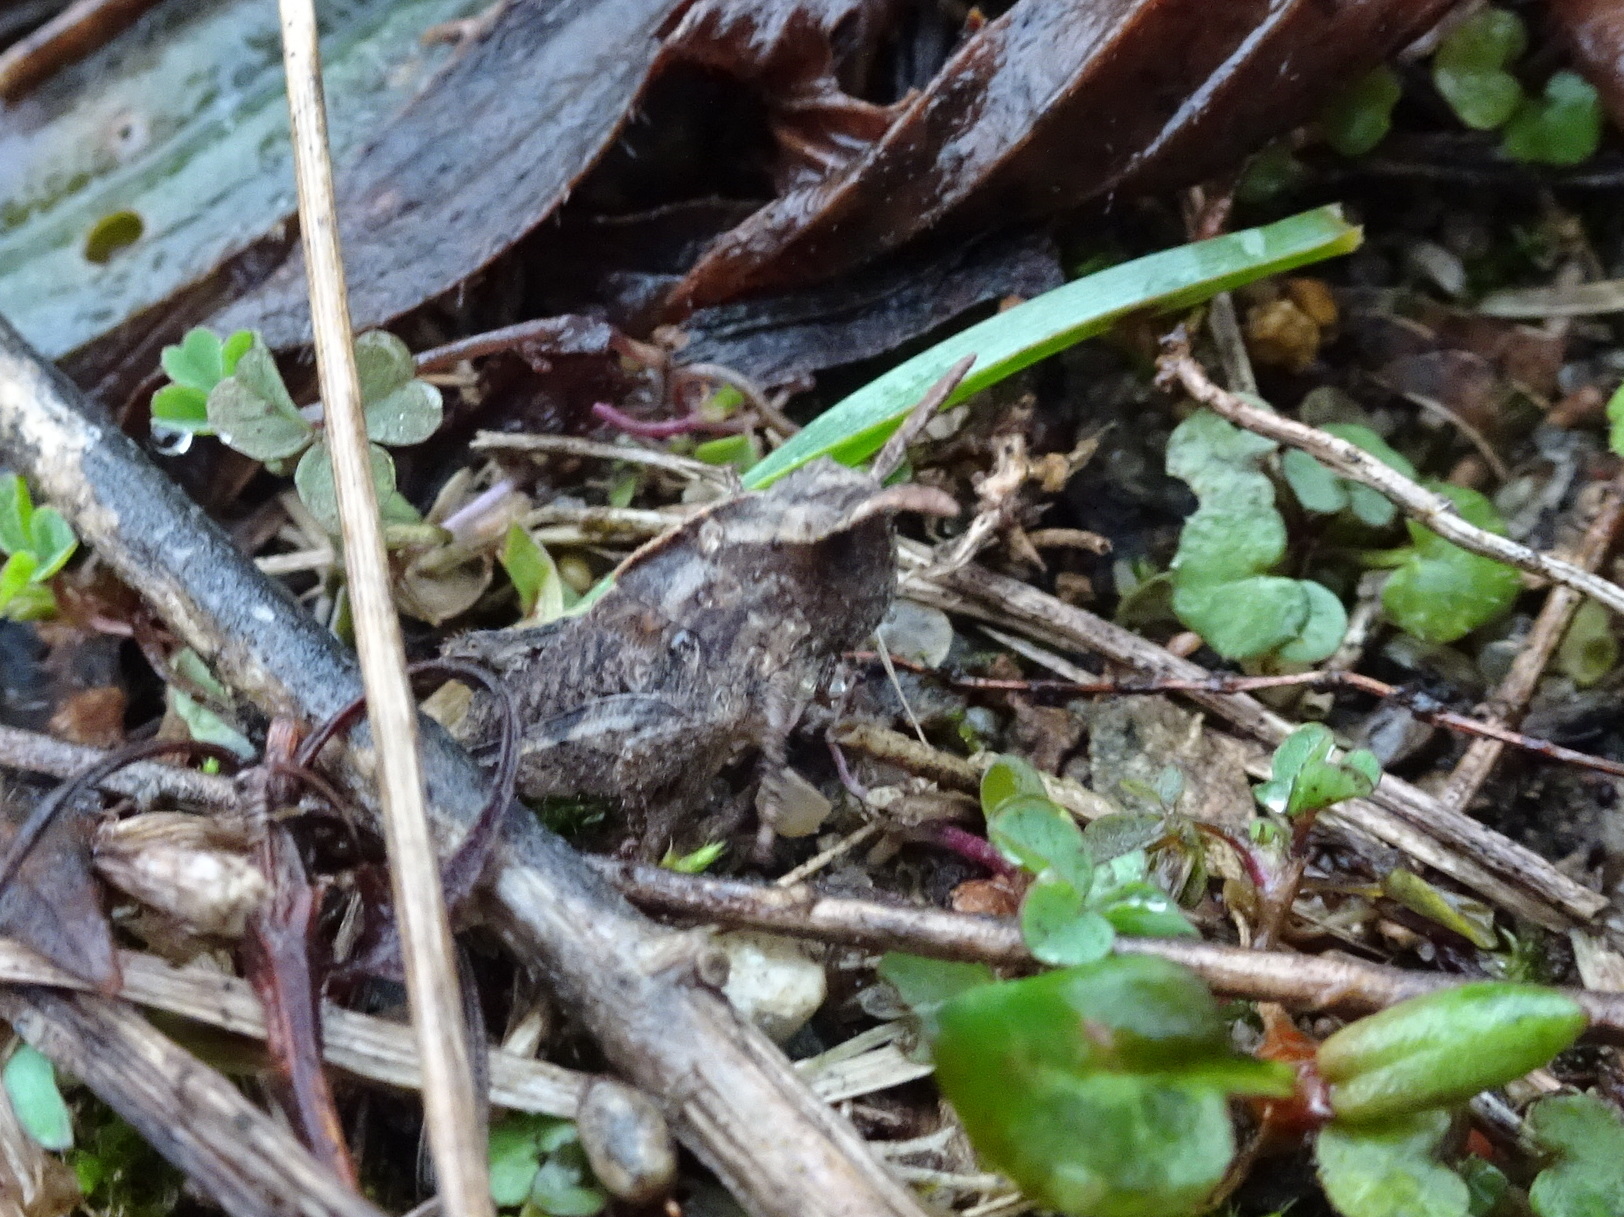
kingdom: Animalia
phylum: Arthropoda
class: Insecta
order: Orthoptera
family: Acrididae
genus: Chortophaga
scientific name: Chortophaga viridifasciata
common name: Green-striped grasshopper
